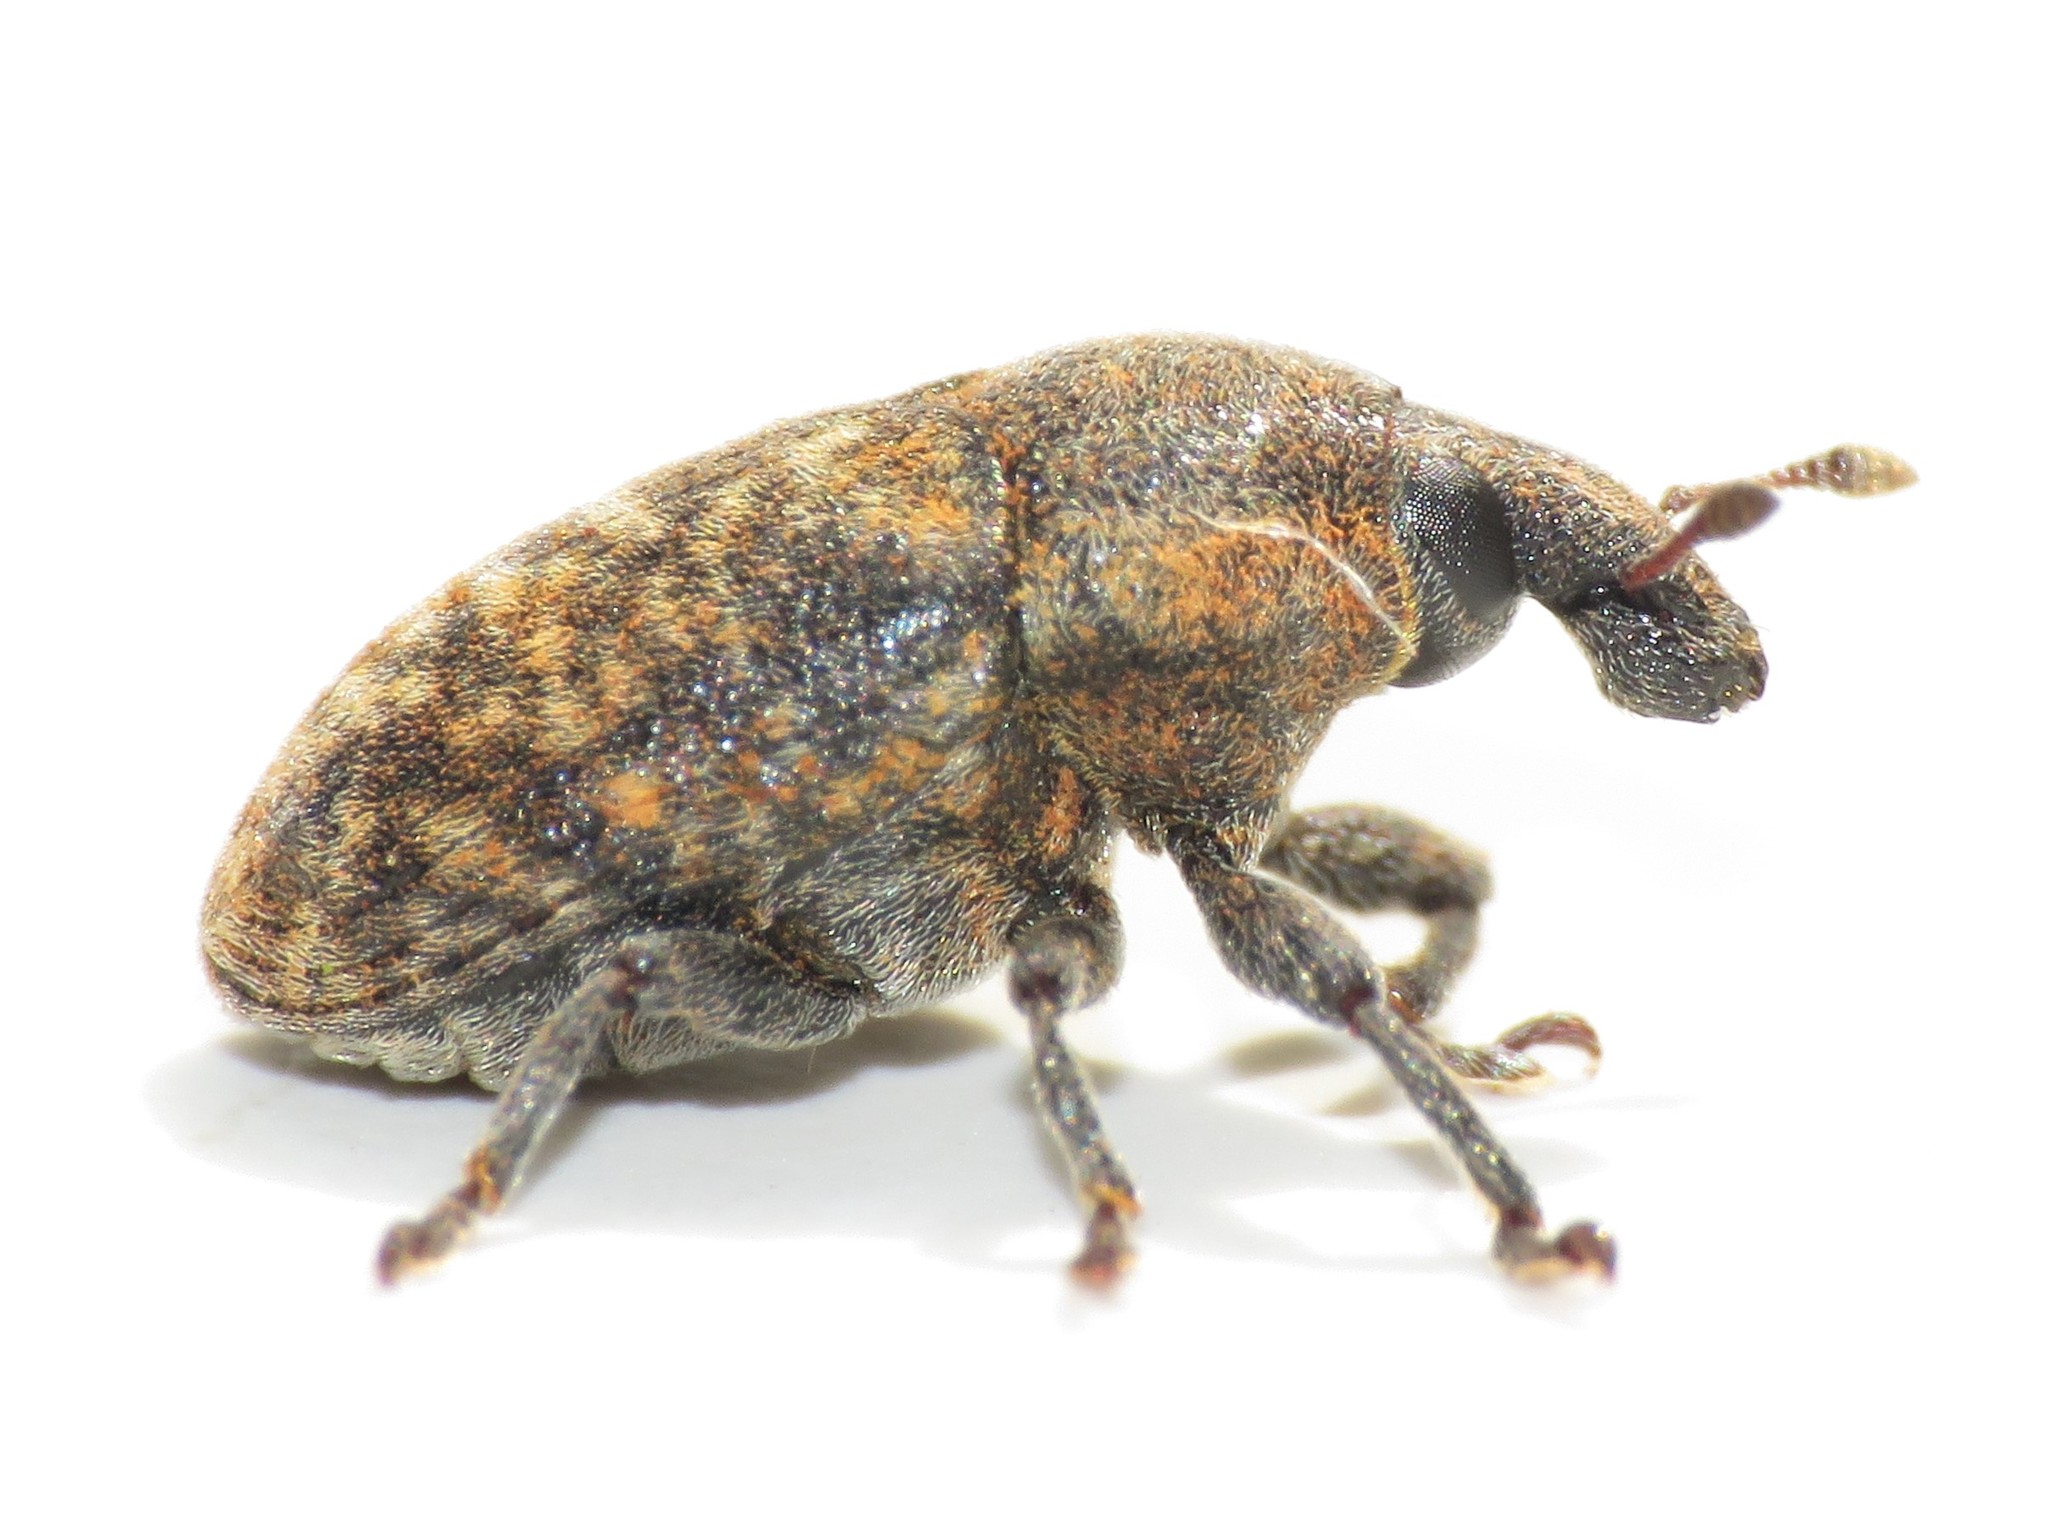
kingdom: Animalia
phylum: Arthropoda
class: Insecta
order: Coleoptera
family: Curculionidae
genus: Larinus
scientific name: Larinus obtusus
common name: Weevil
